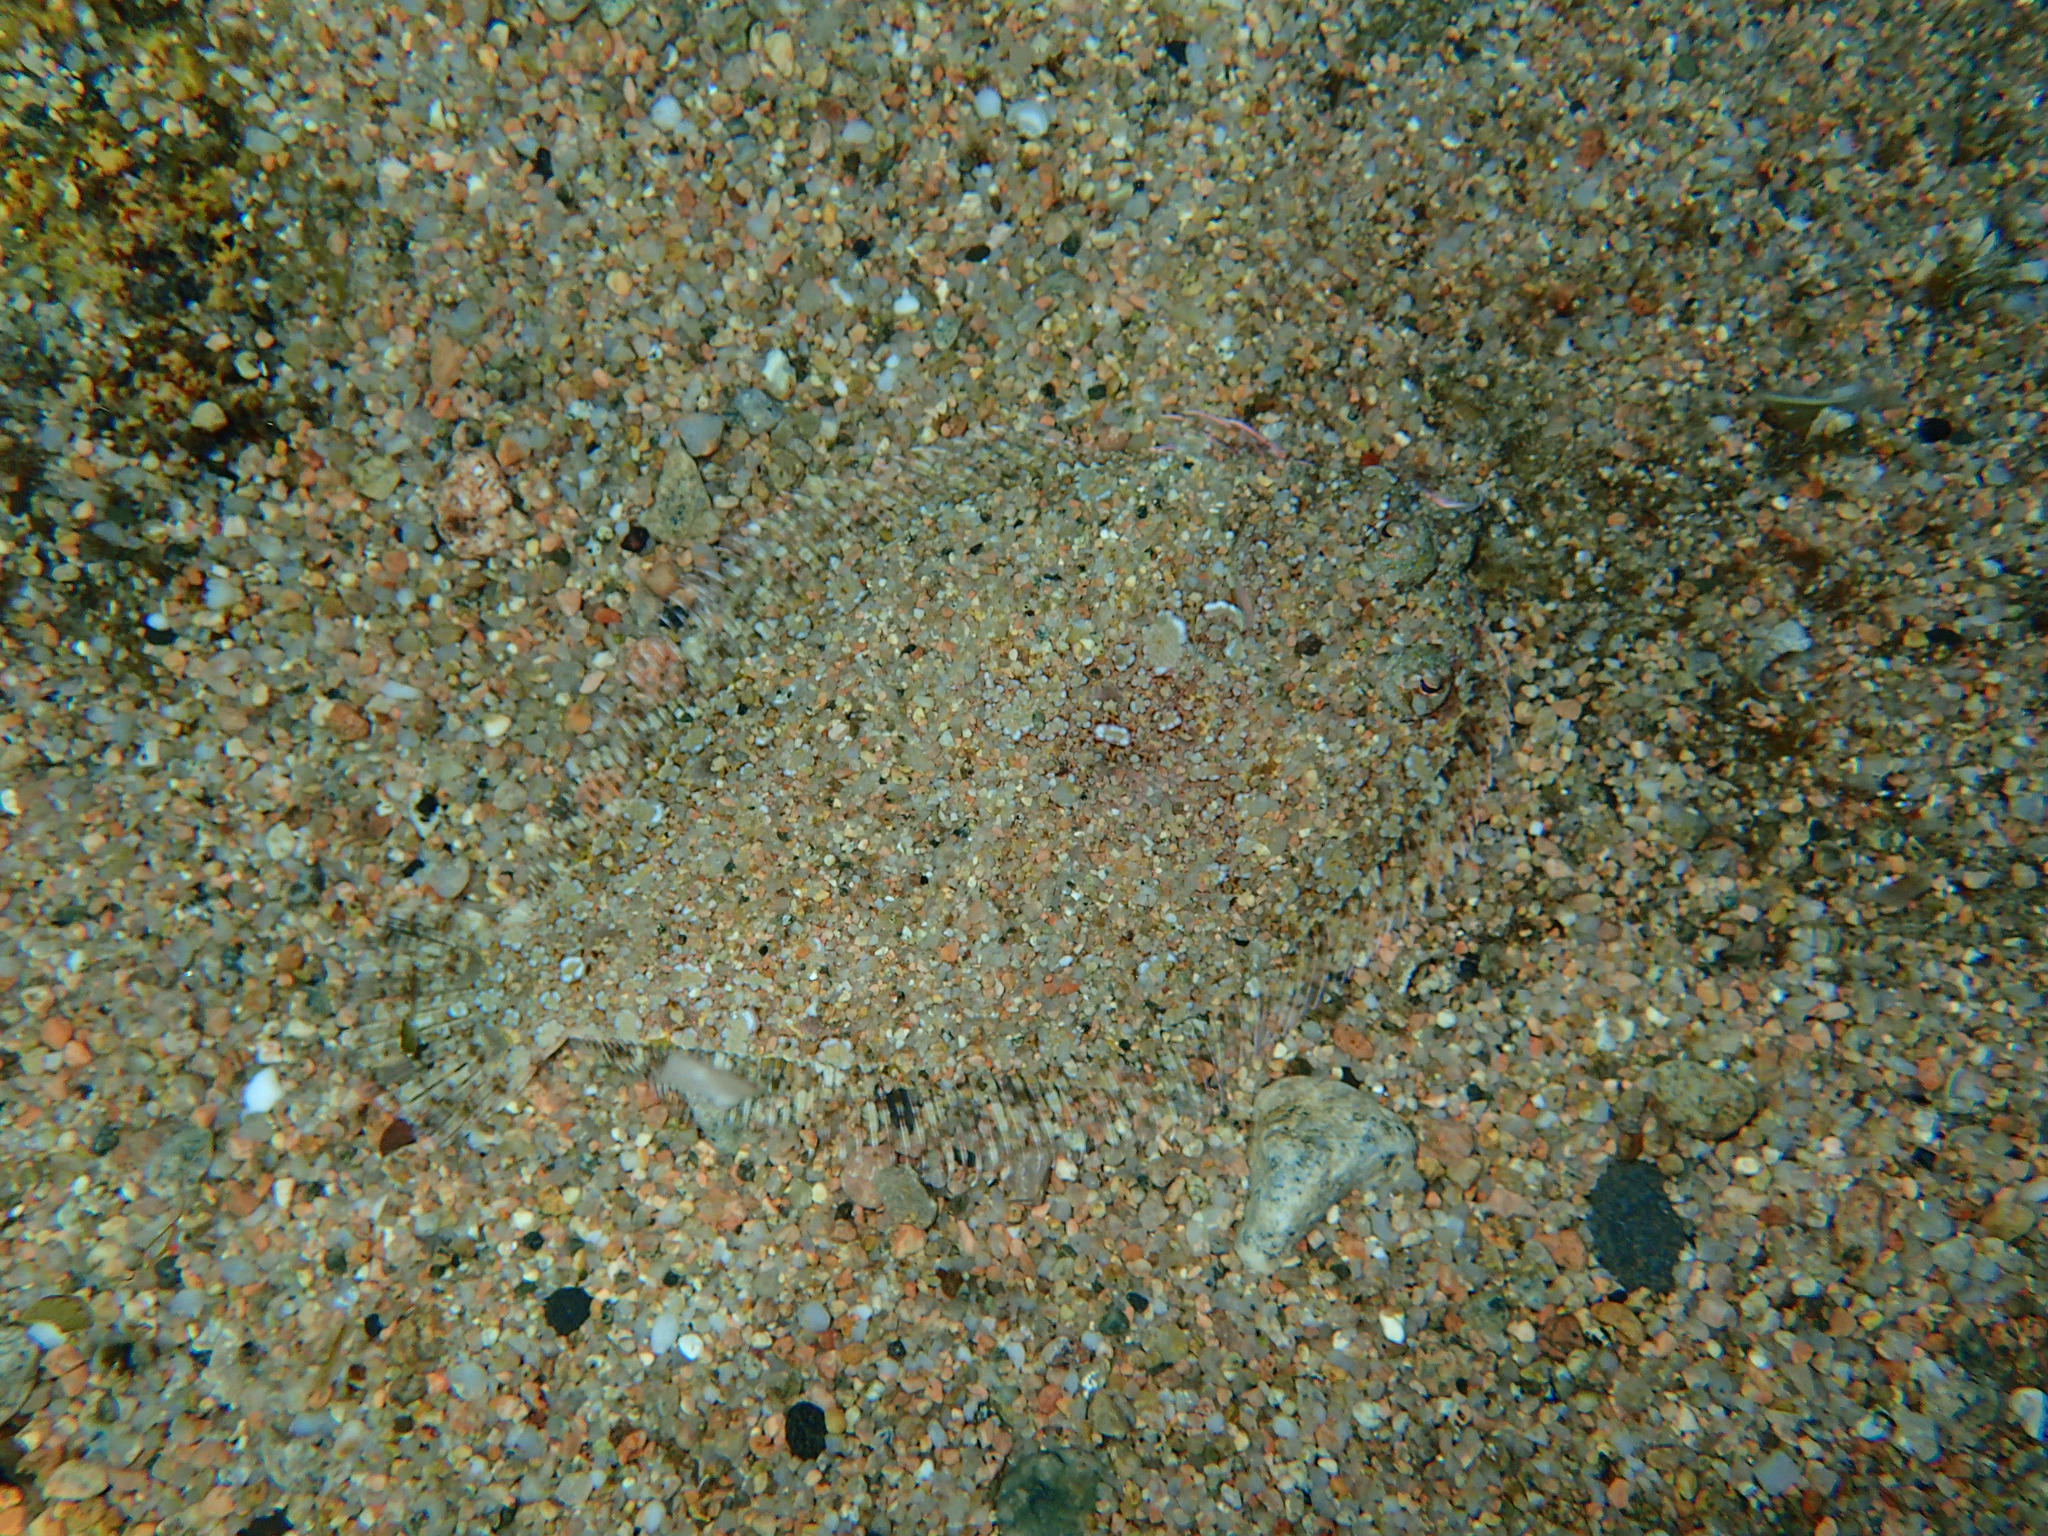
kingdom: Animalia
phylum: Chordata
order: Pleuronectiformes
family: Bothidae
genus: Bothus
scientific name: Bothus podas
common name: Wide-eyed flounder
